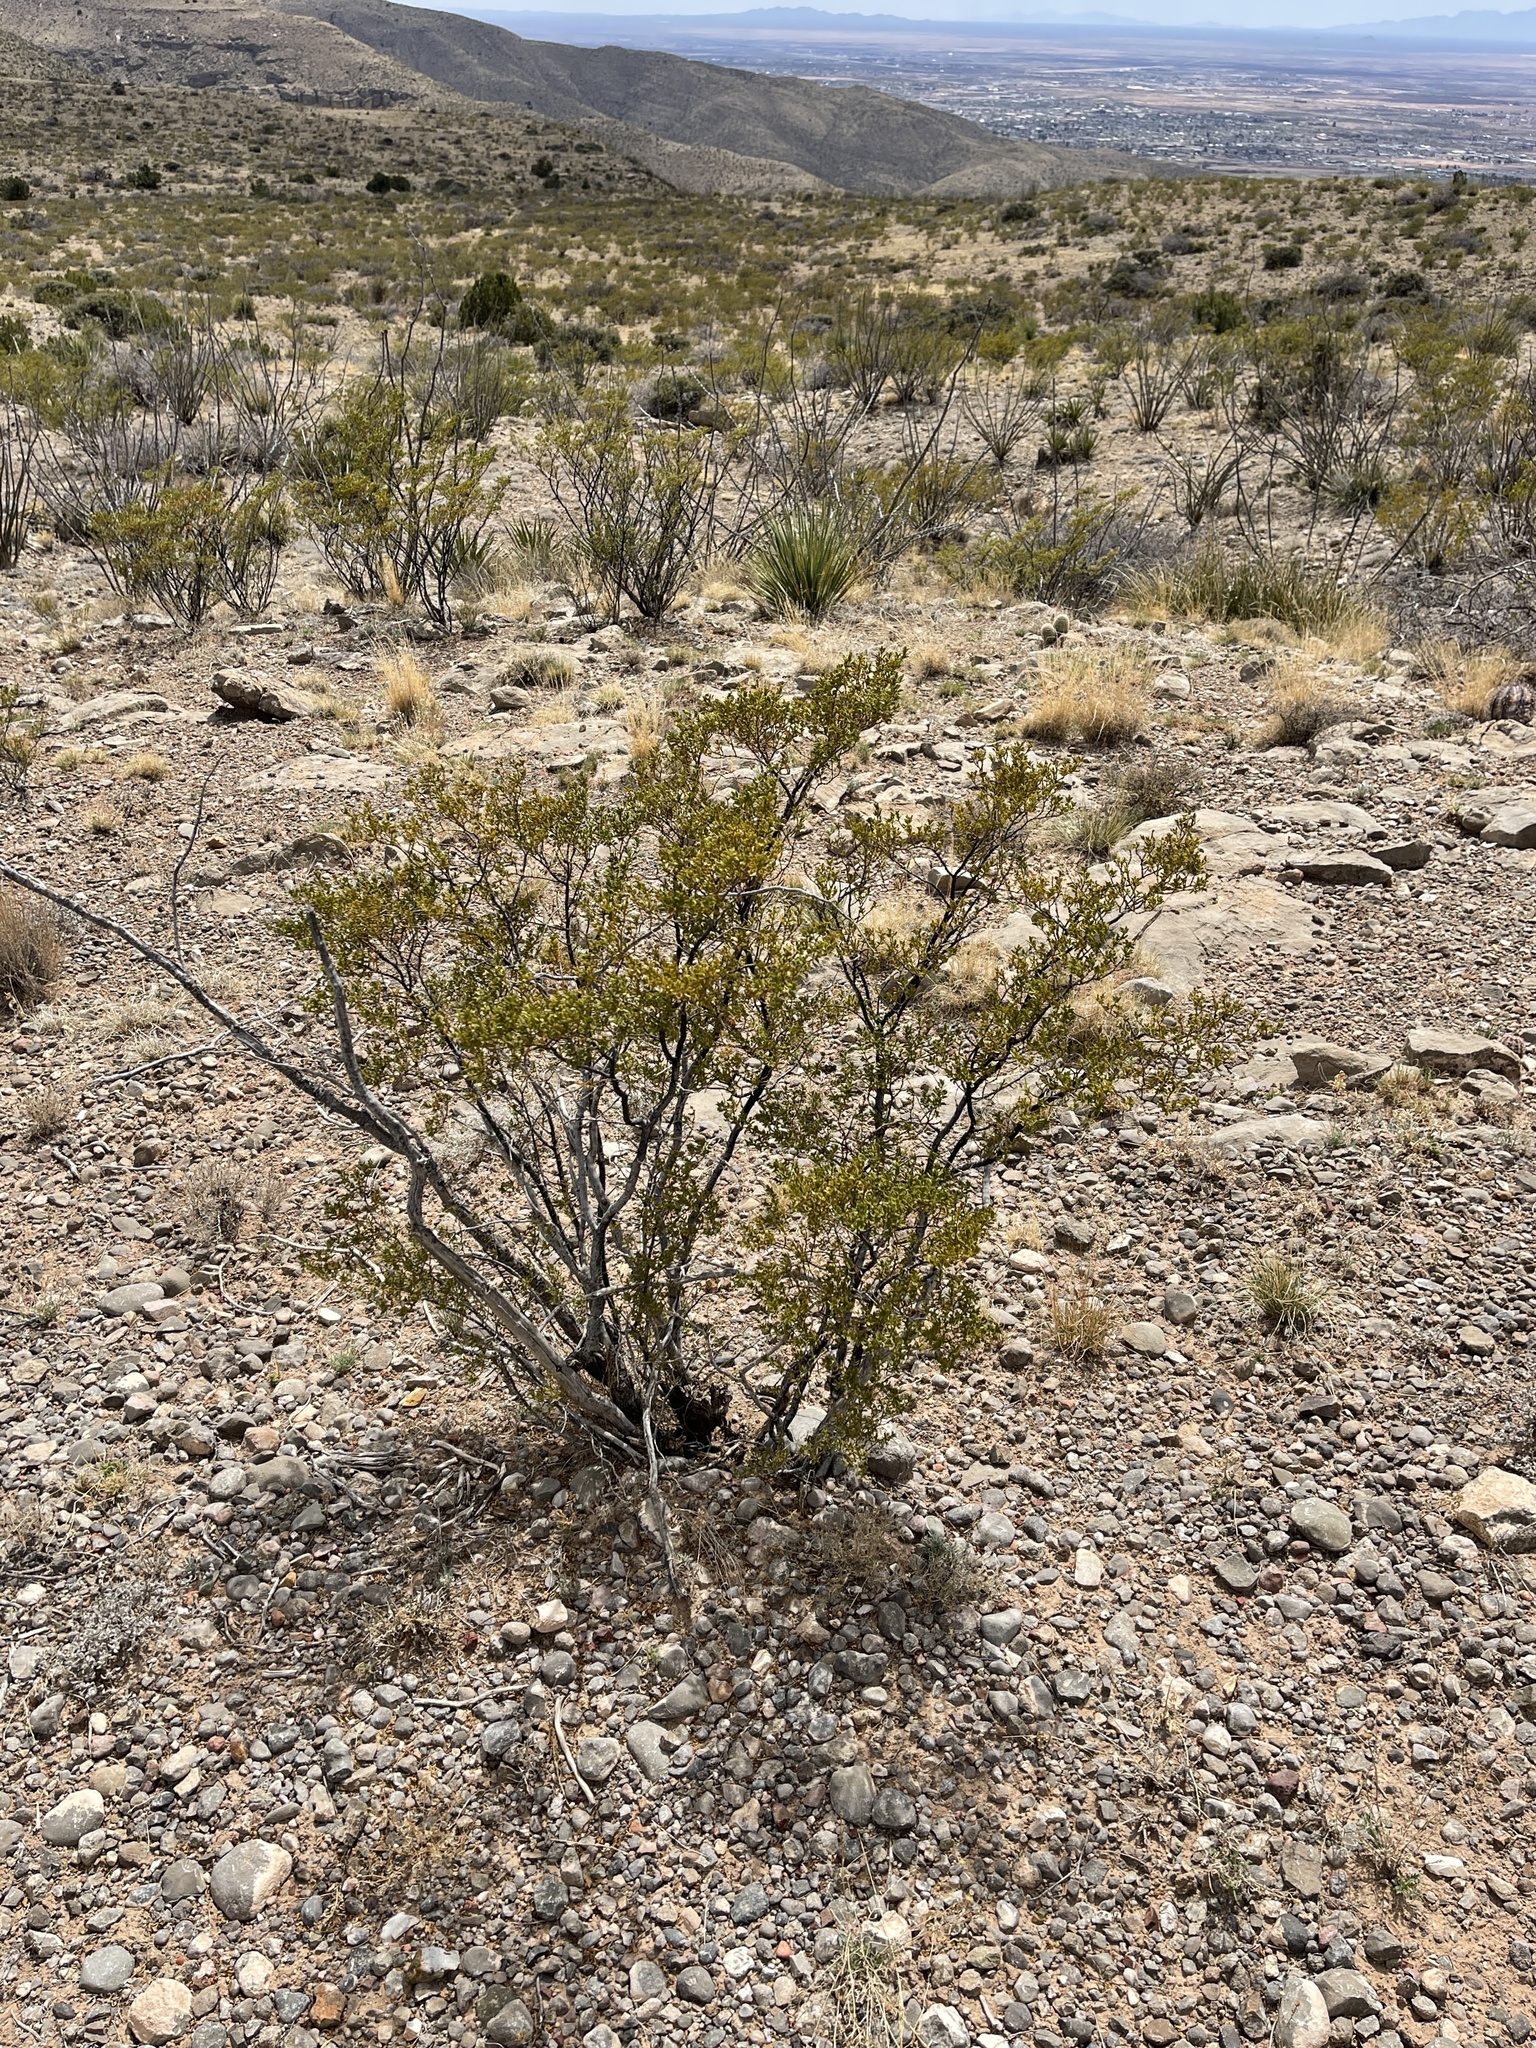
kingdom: Plantae
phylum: Tracheophyta
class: Magnoliopsida
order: Zygophyllales
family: Zygophyllaceae
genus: Larrea
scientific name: Larrea tridentata
